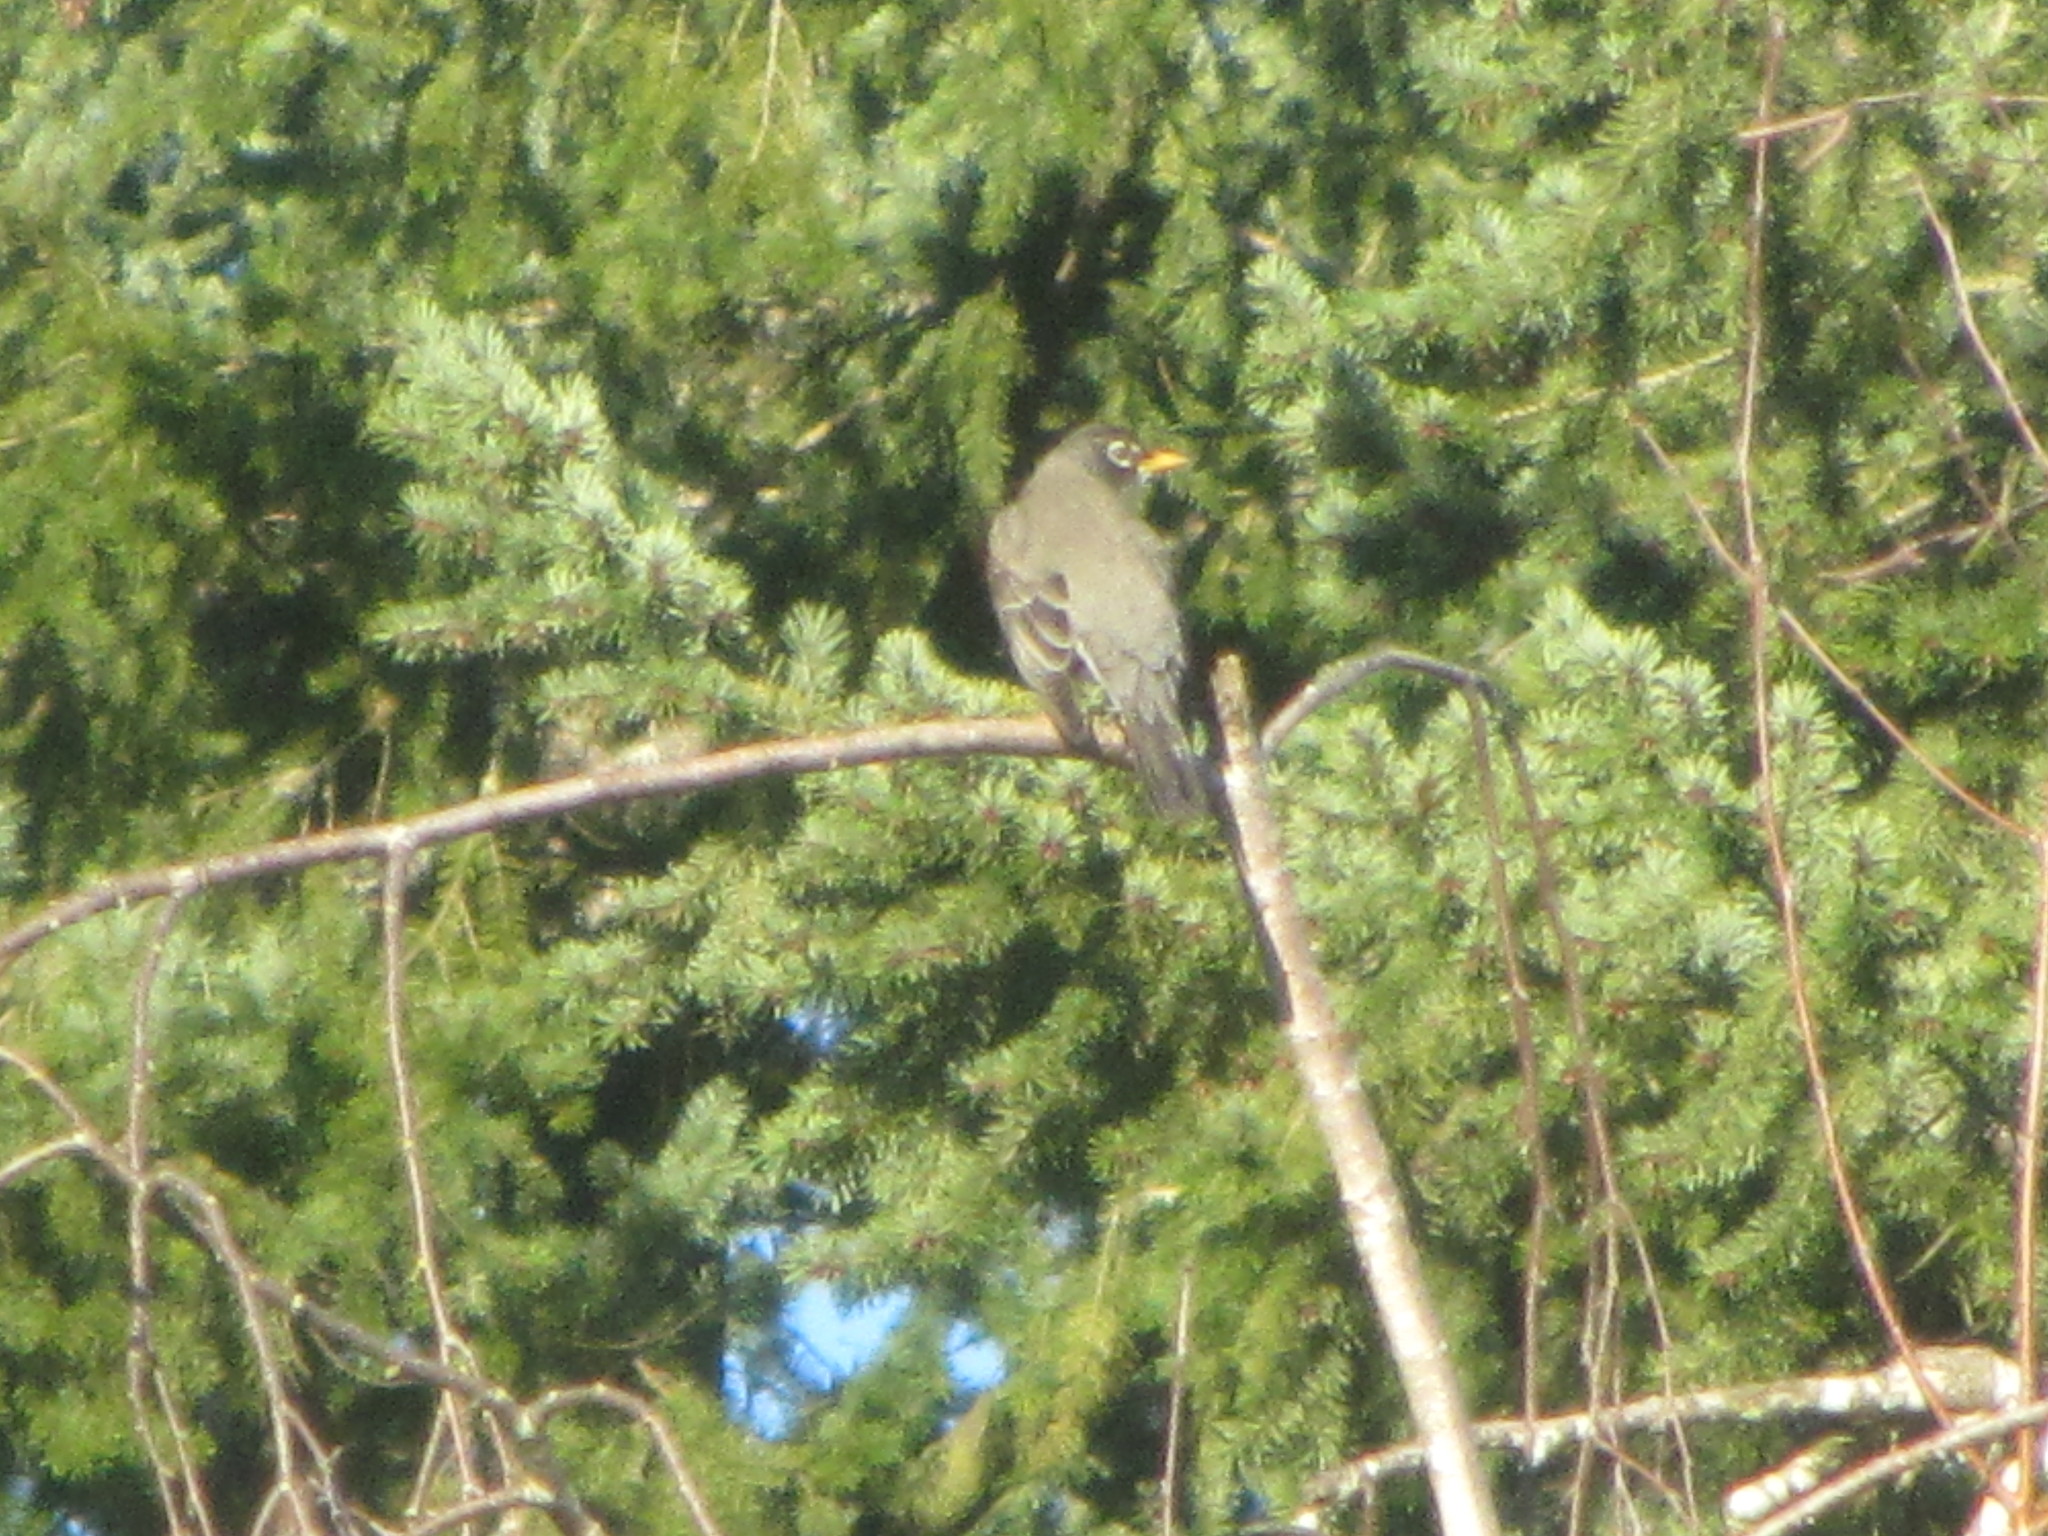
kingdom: Animalia
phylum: Chordata
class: Aves
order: Passeriformes
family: Turdidae
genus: Turdus
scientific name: Turdus migratorius
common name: American robin
